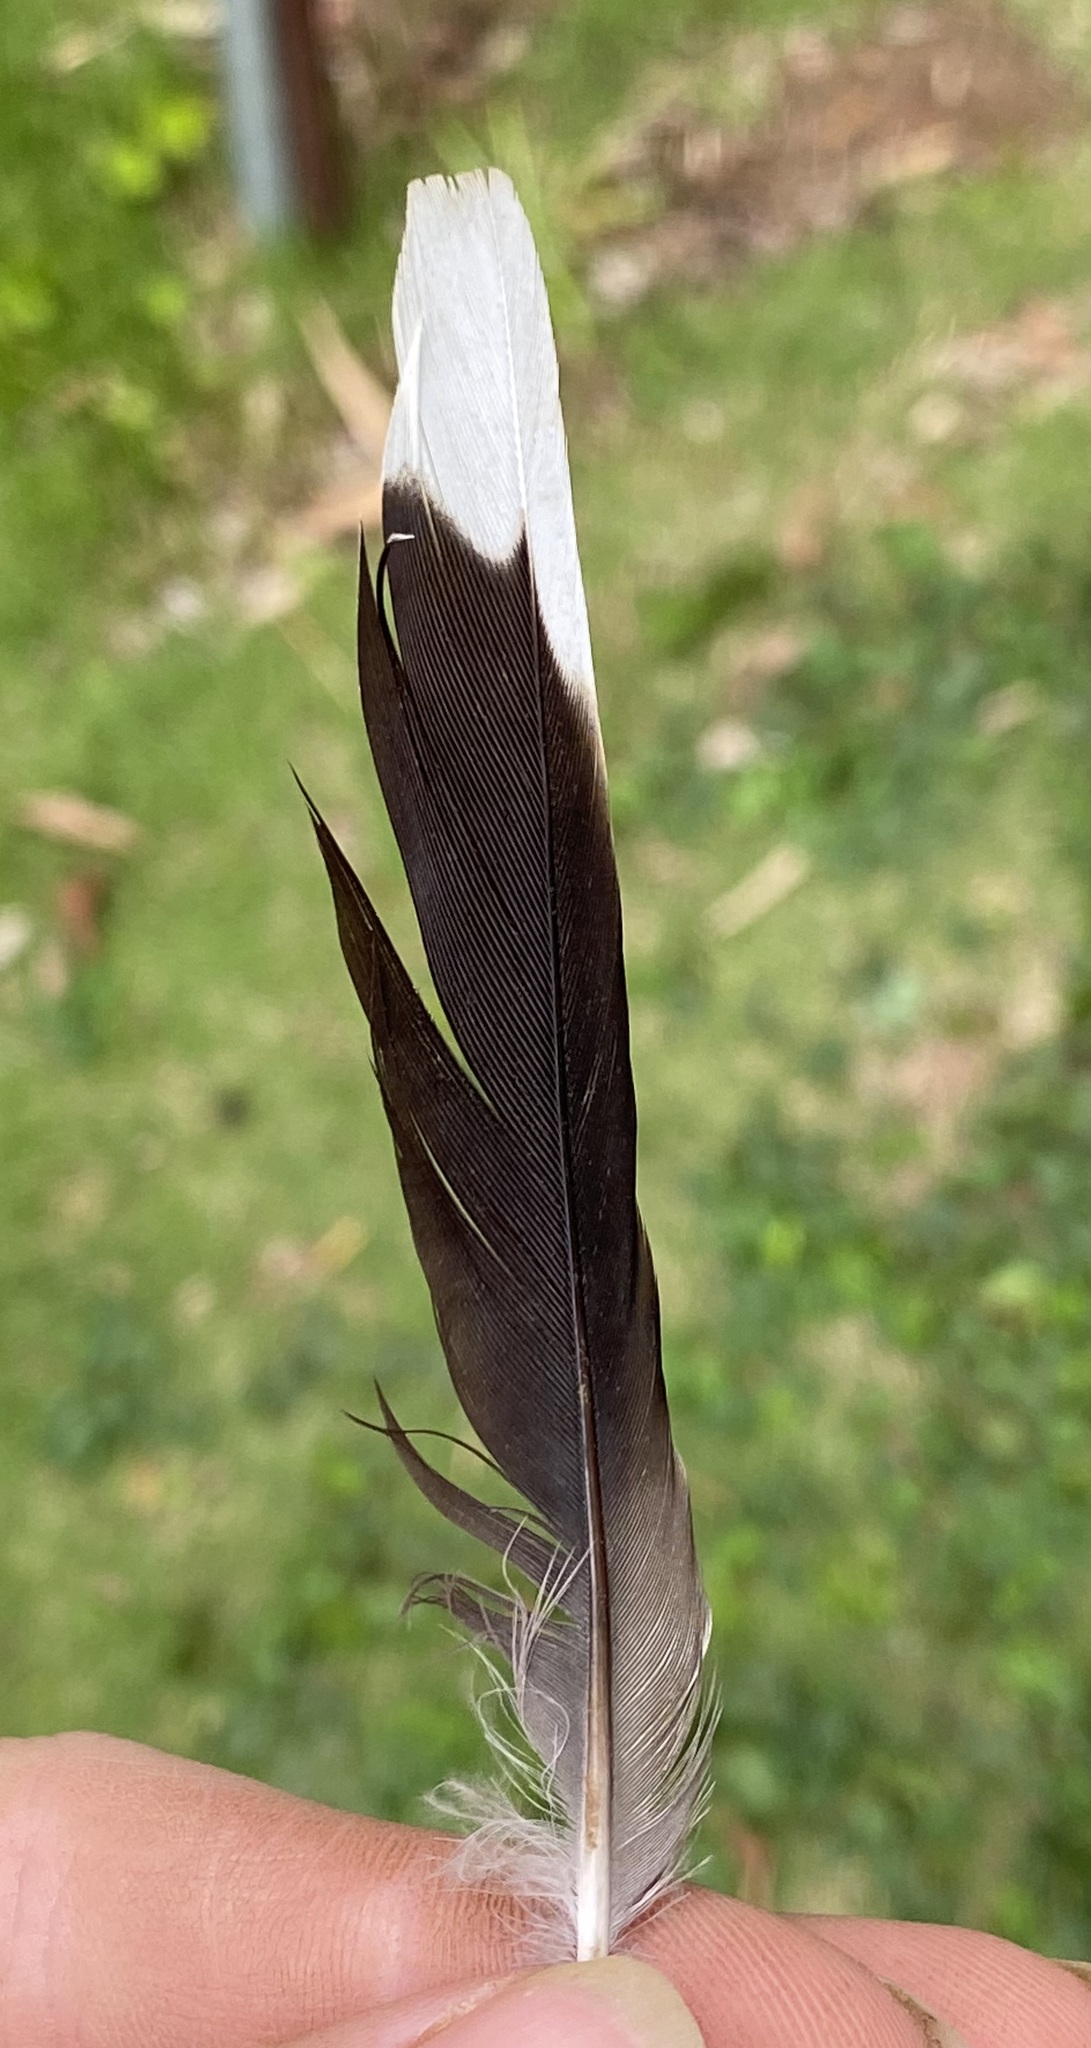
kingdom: Animalia
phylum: Chordata
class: Aves
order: Passeriformes
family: Sturnidae
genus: Acridotheres
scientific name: Acridotheres tristis
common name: Common myna
